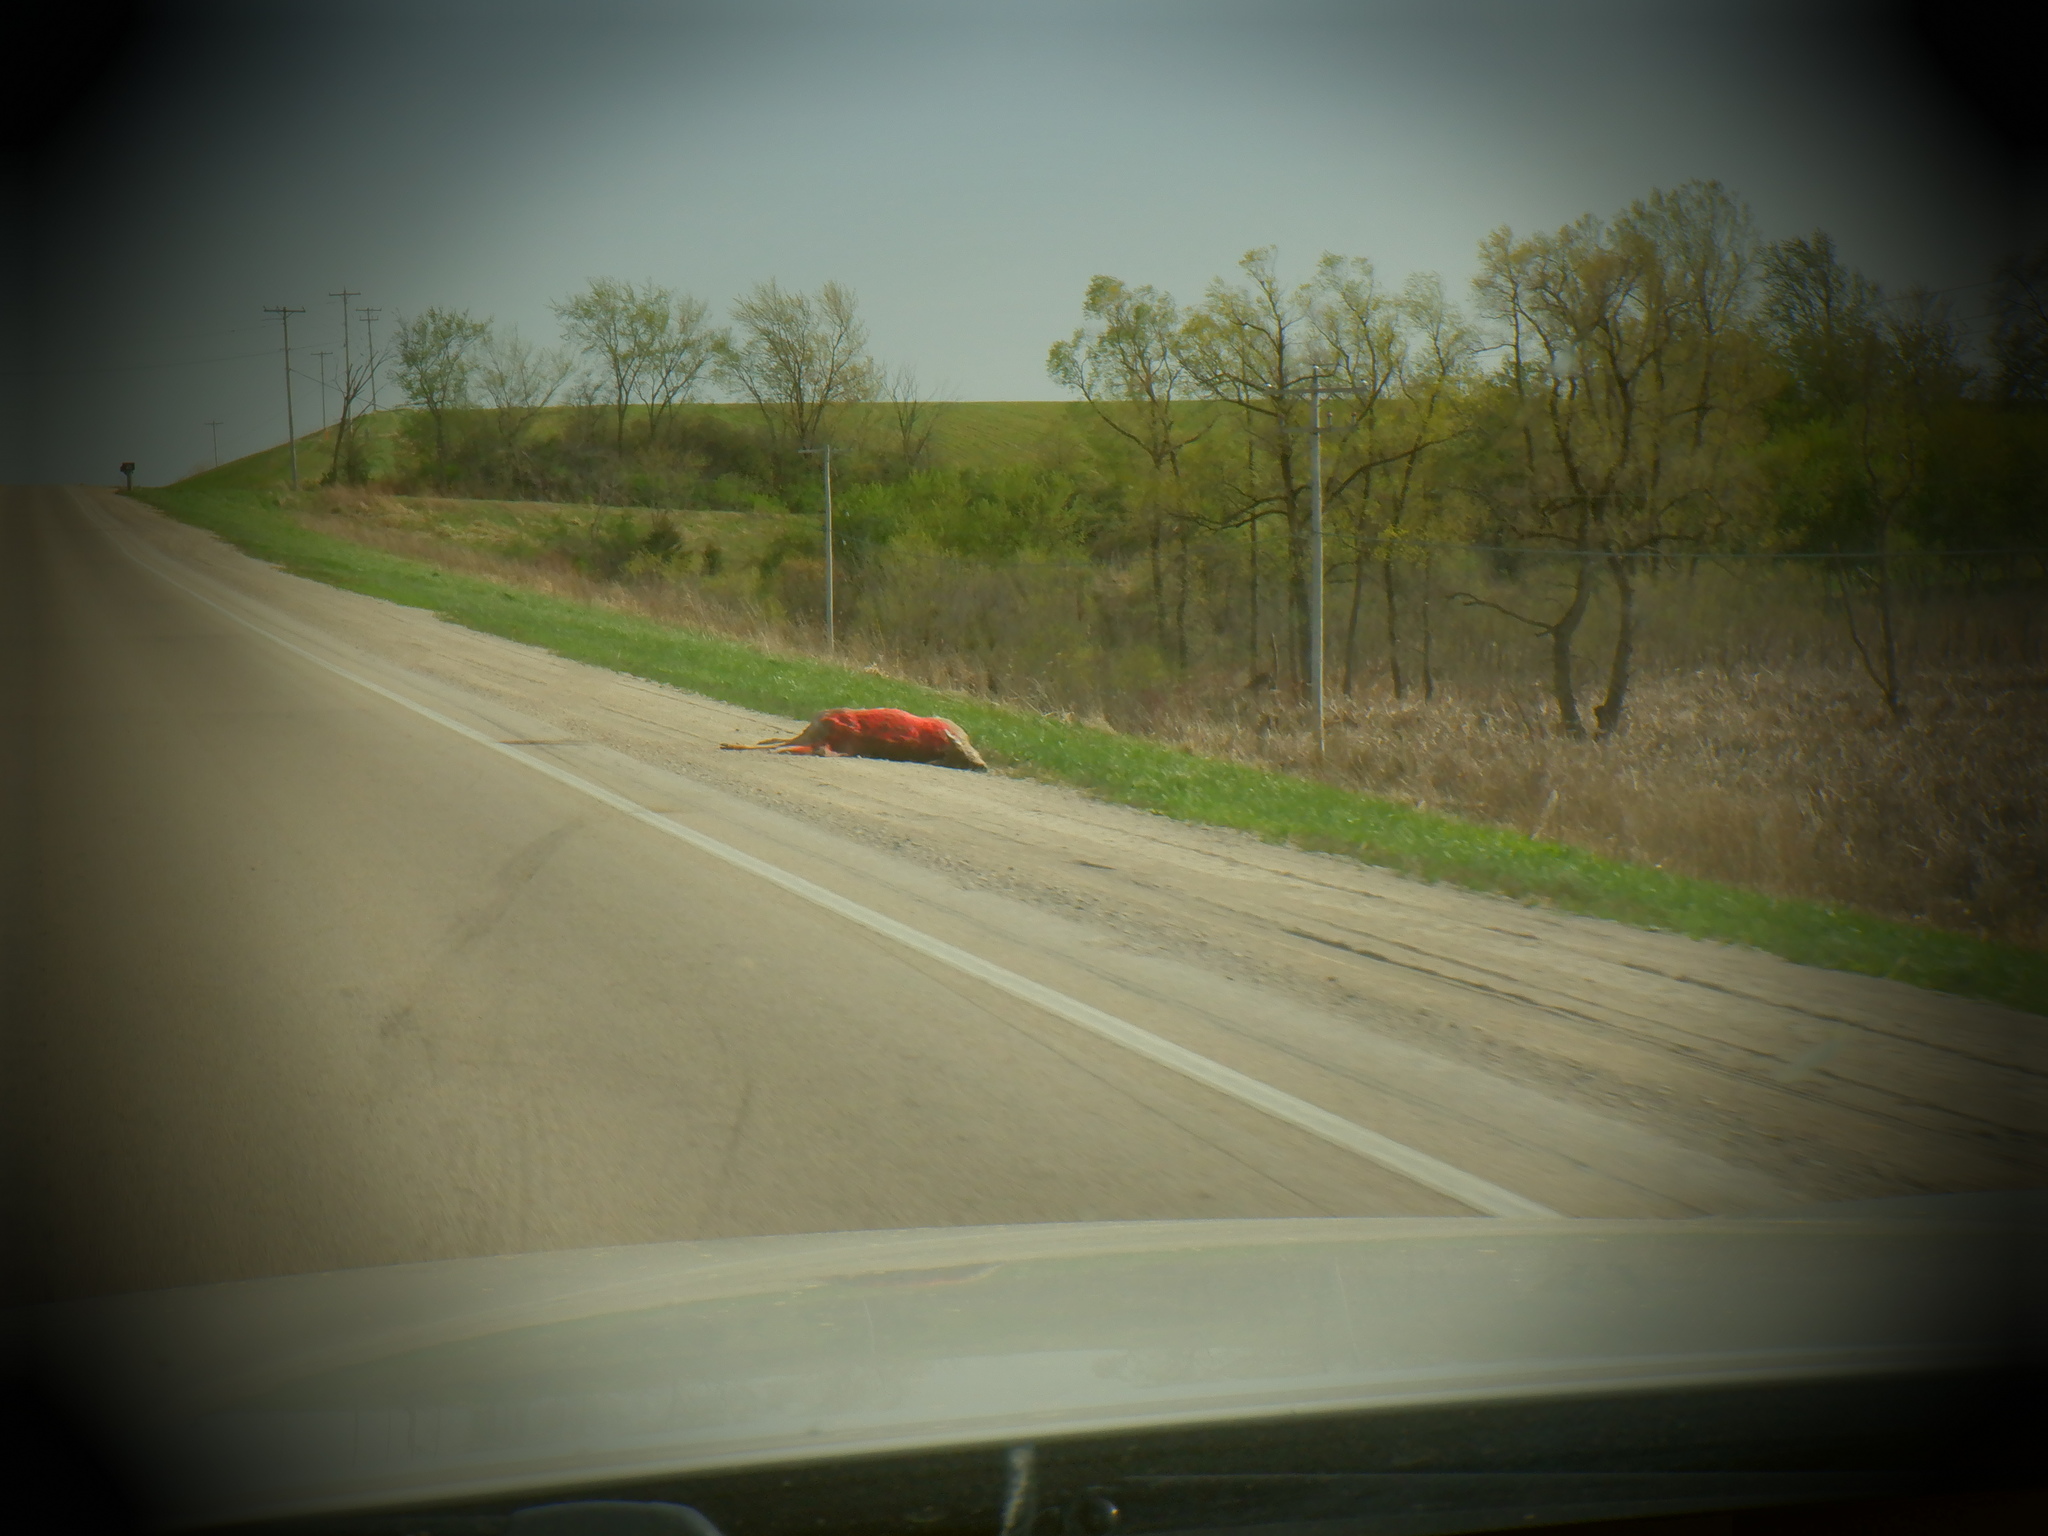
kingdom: Animalia
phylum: Chordata
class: Mammalia
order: Artiodactyla
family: Cervidae
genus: Odocoileus
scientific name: Odocoileus virginianus
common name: White-tailed deer
